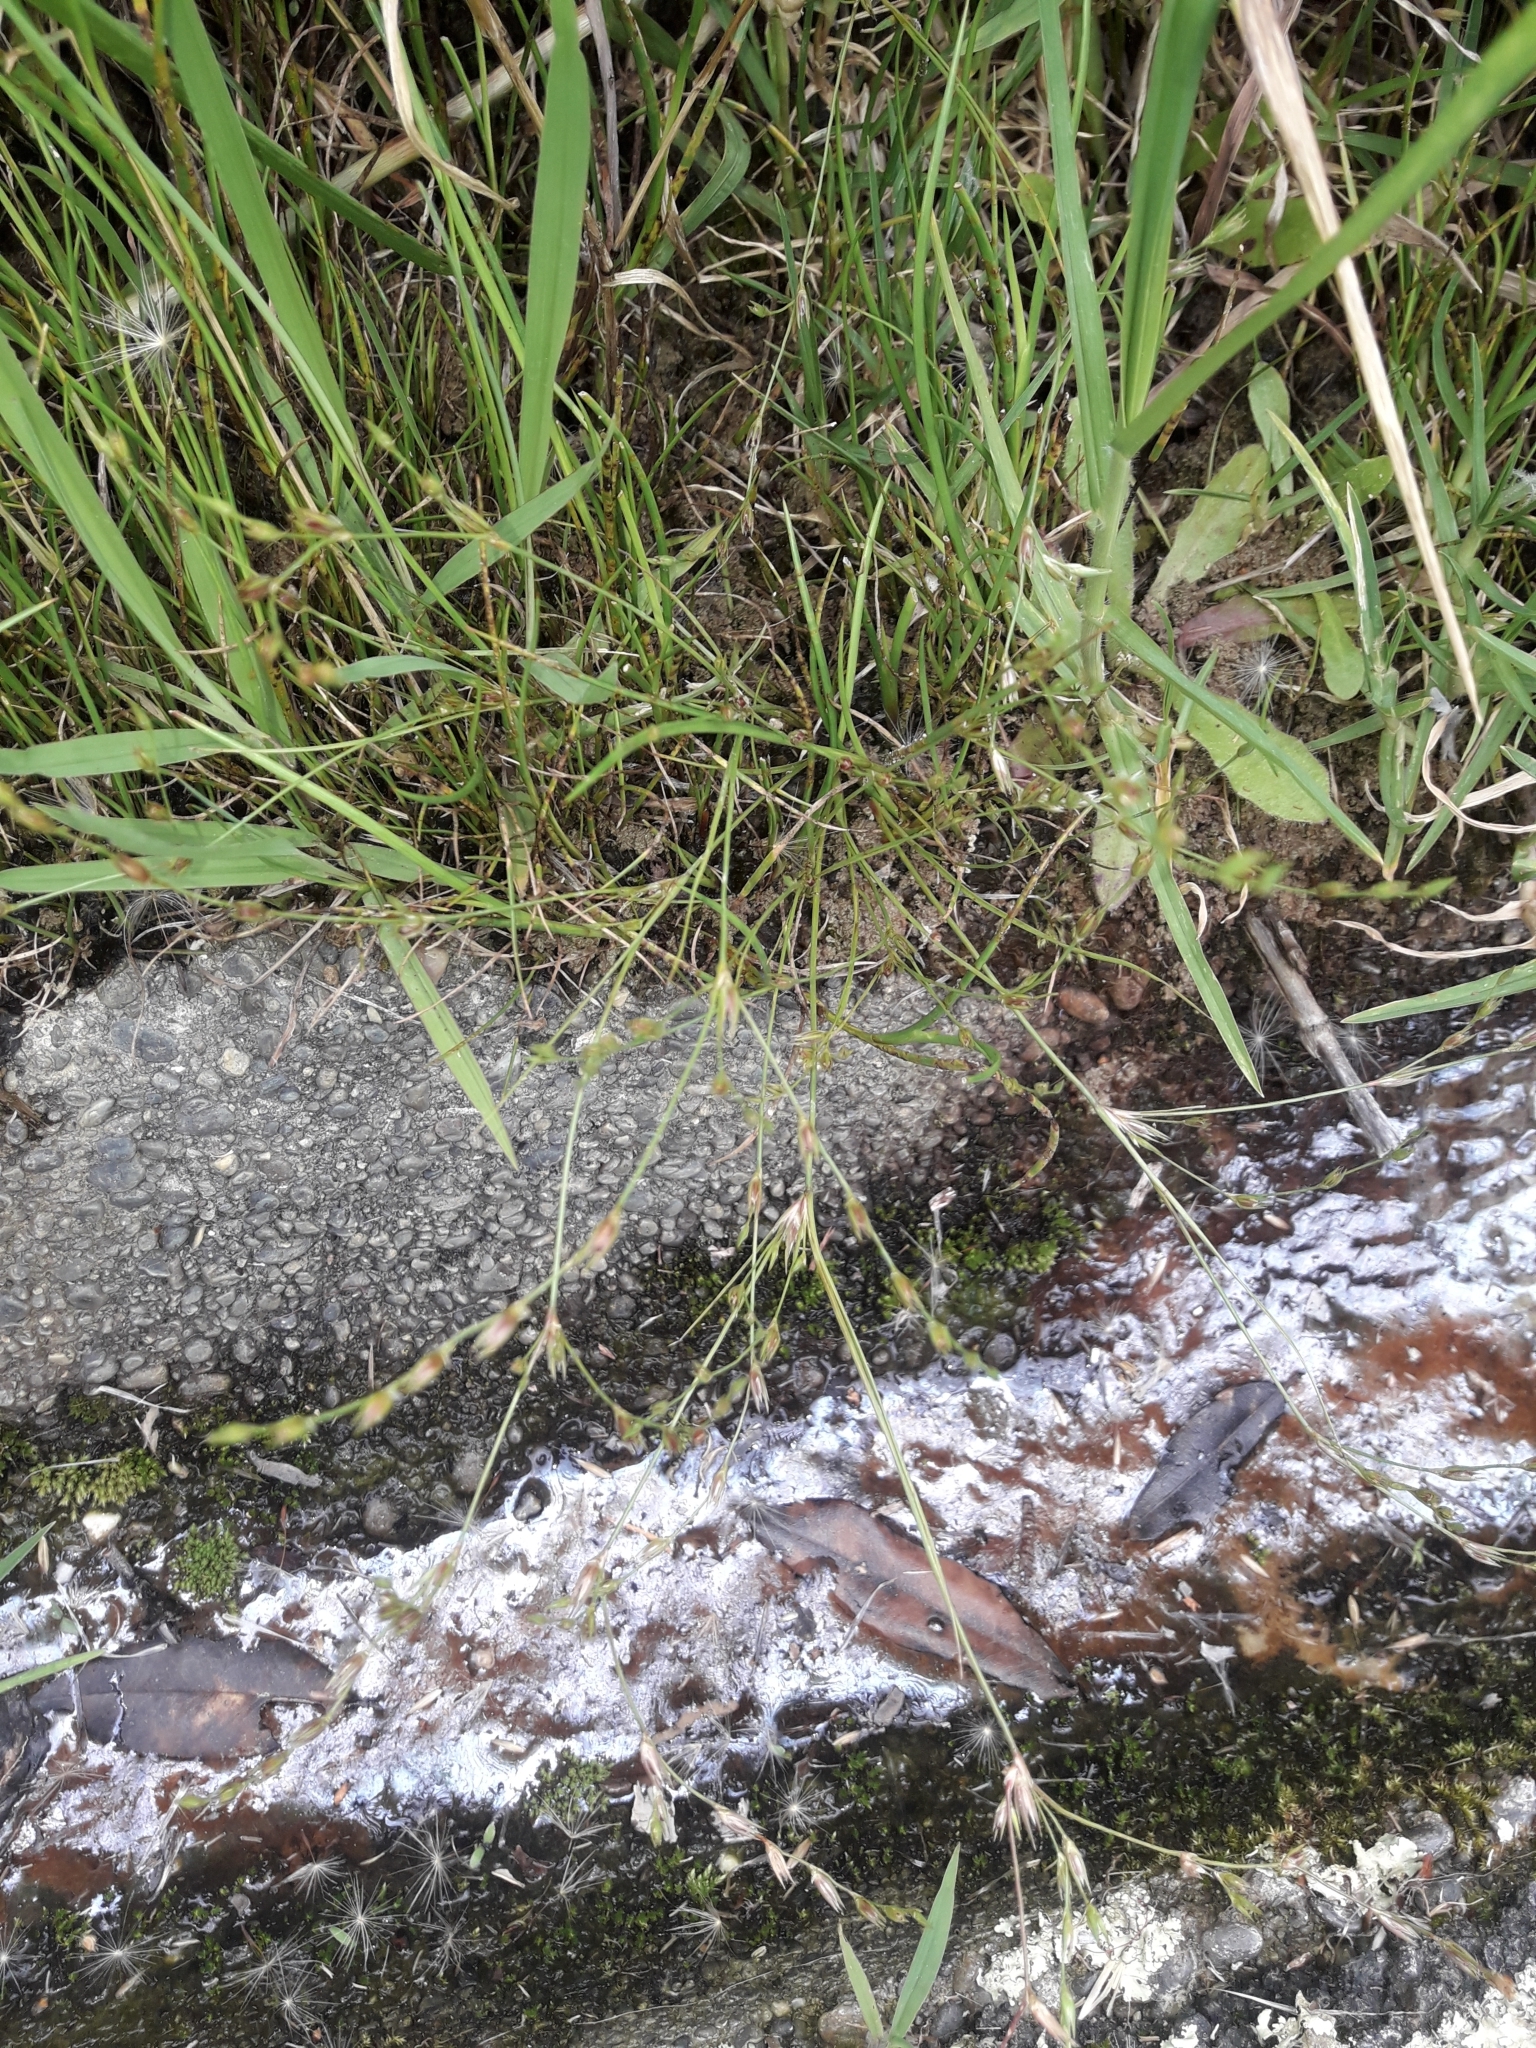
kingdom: Plantae
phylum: Tracheophyta
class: Liliopsida
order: Poales
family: Juncaceae
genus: Juncus
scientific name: Juncus bufonius
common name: Toad rush
